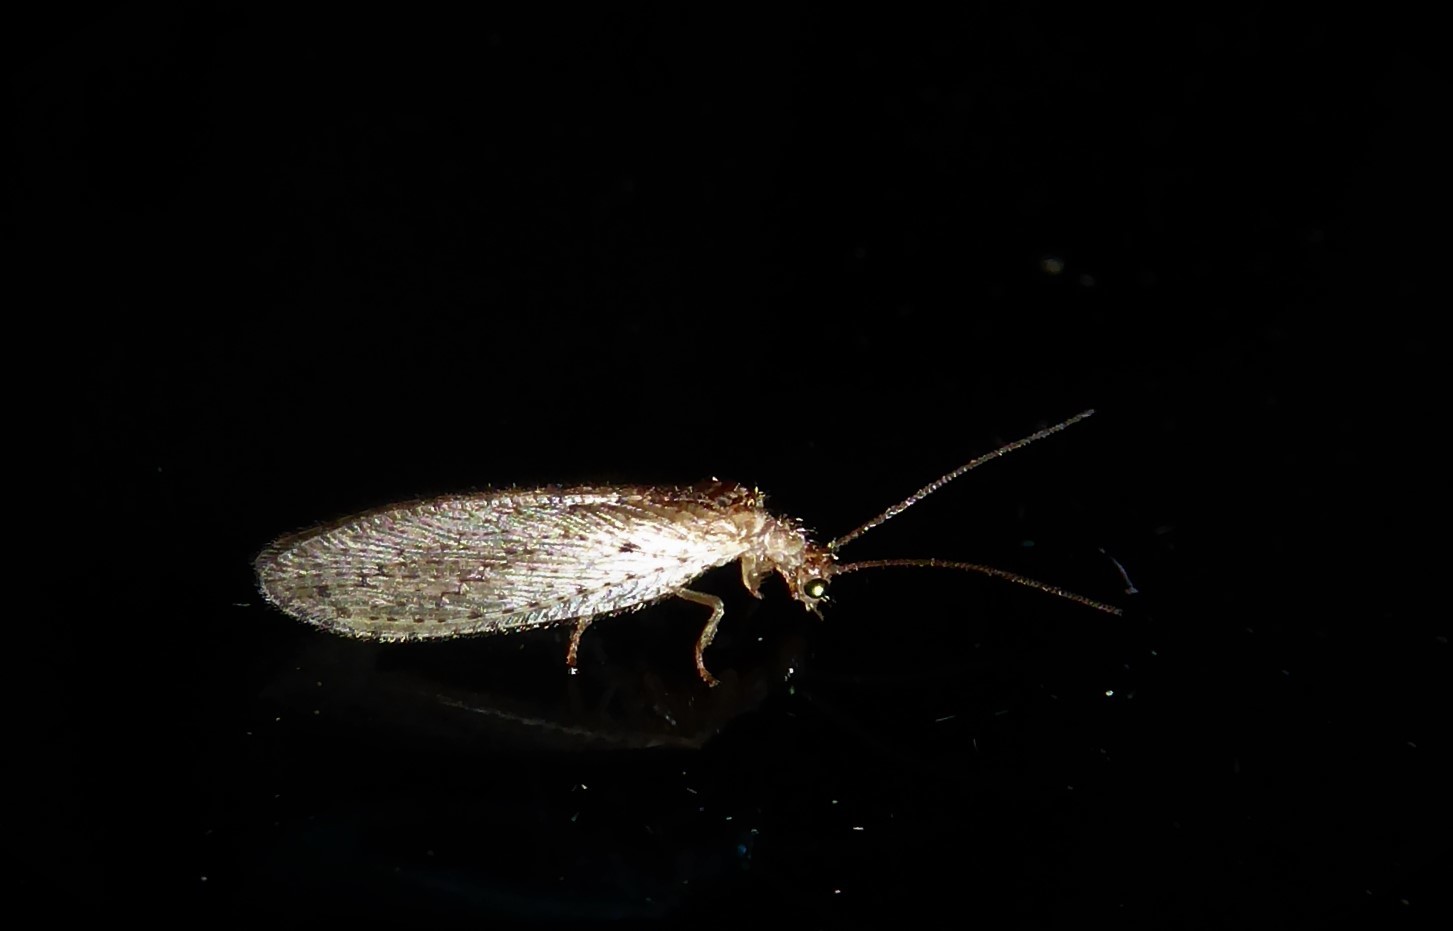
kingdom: Animalia
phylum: Arthropoda
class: Insecta
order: Neuroptera
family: Hemerobiidae
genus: Micromus
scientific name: Micromus tasmaniae
